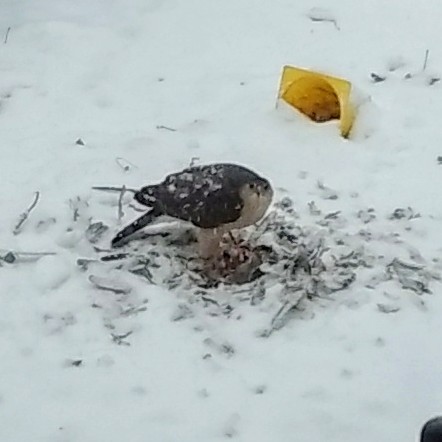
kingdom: Animalia
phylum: Chordata
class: Aves
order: Accipitriformes
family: Accipitridae
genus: Accipiter
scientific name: Accipiter striatus
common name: Sharp-shinned hawk
